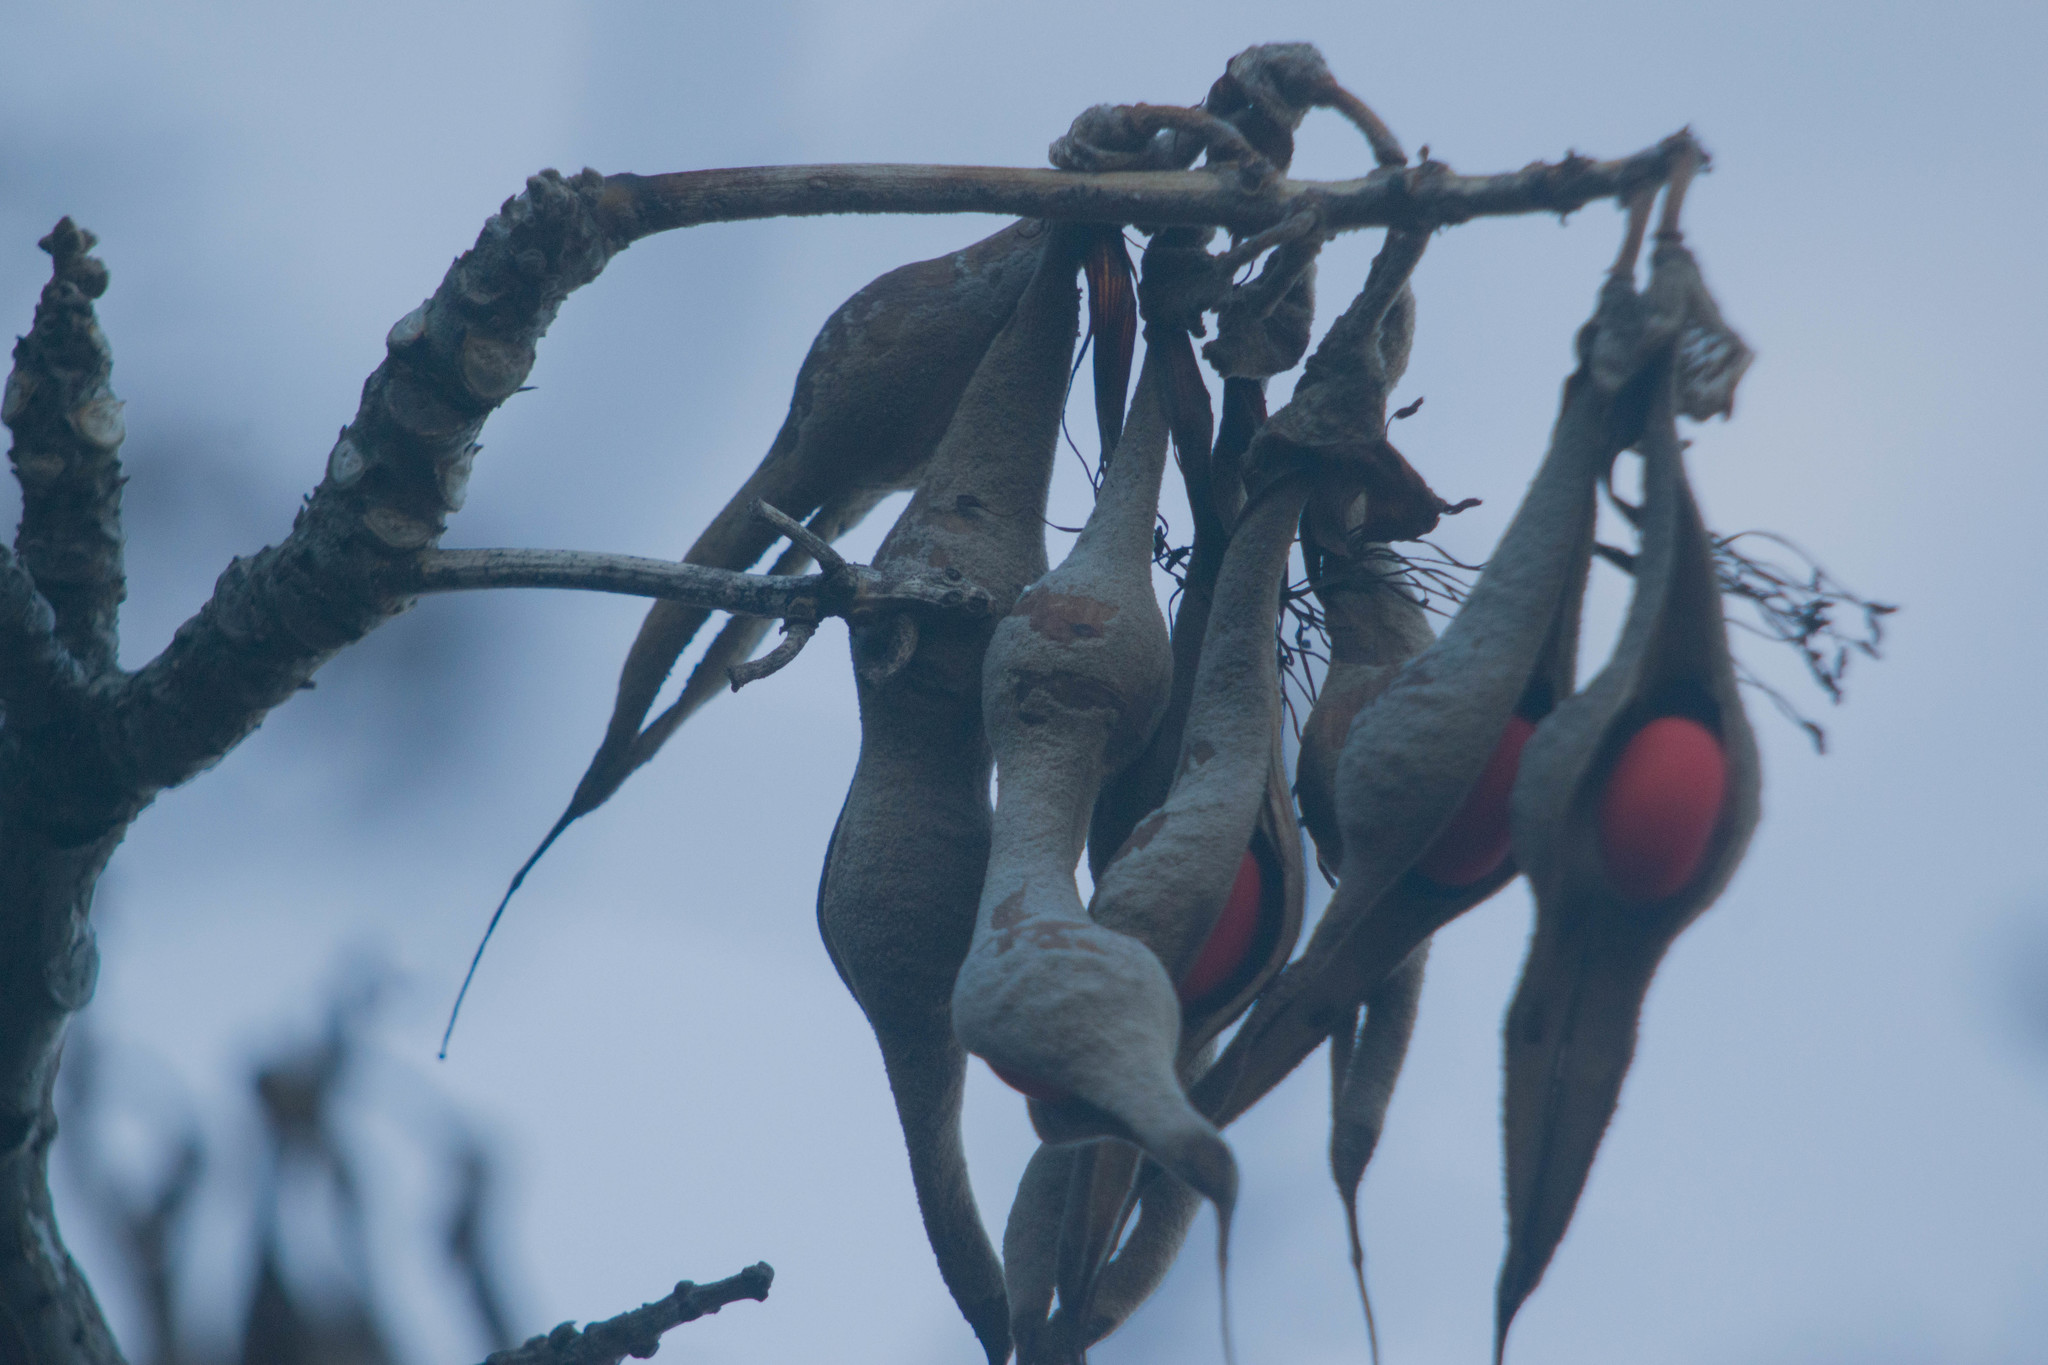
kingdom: Plantae
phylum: Tracheophyta
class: Magnoliopsida
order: Fabales
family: Fabaceae
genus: Erythrina
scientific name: Erythrina sandwicensis
